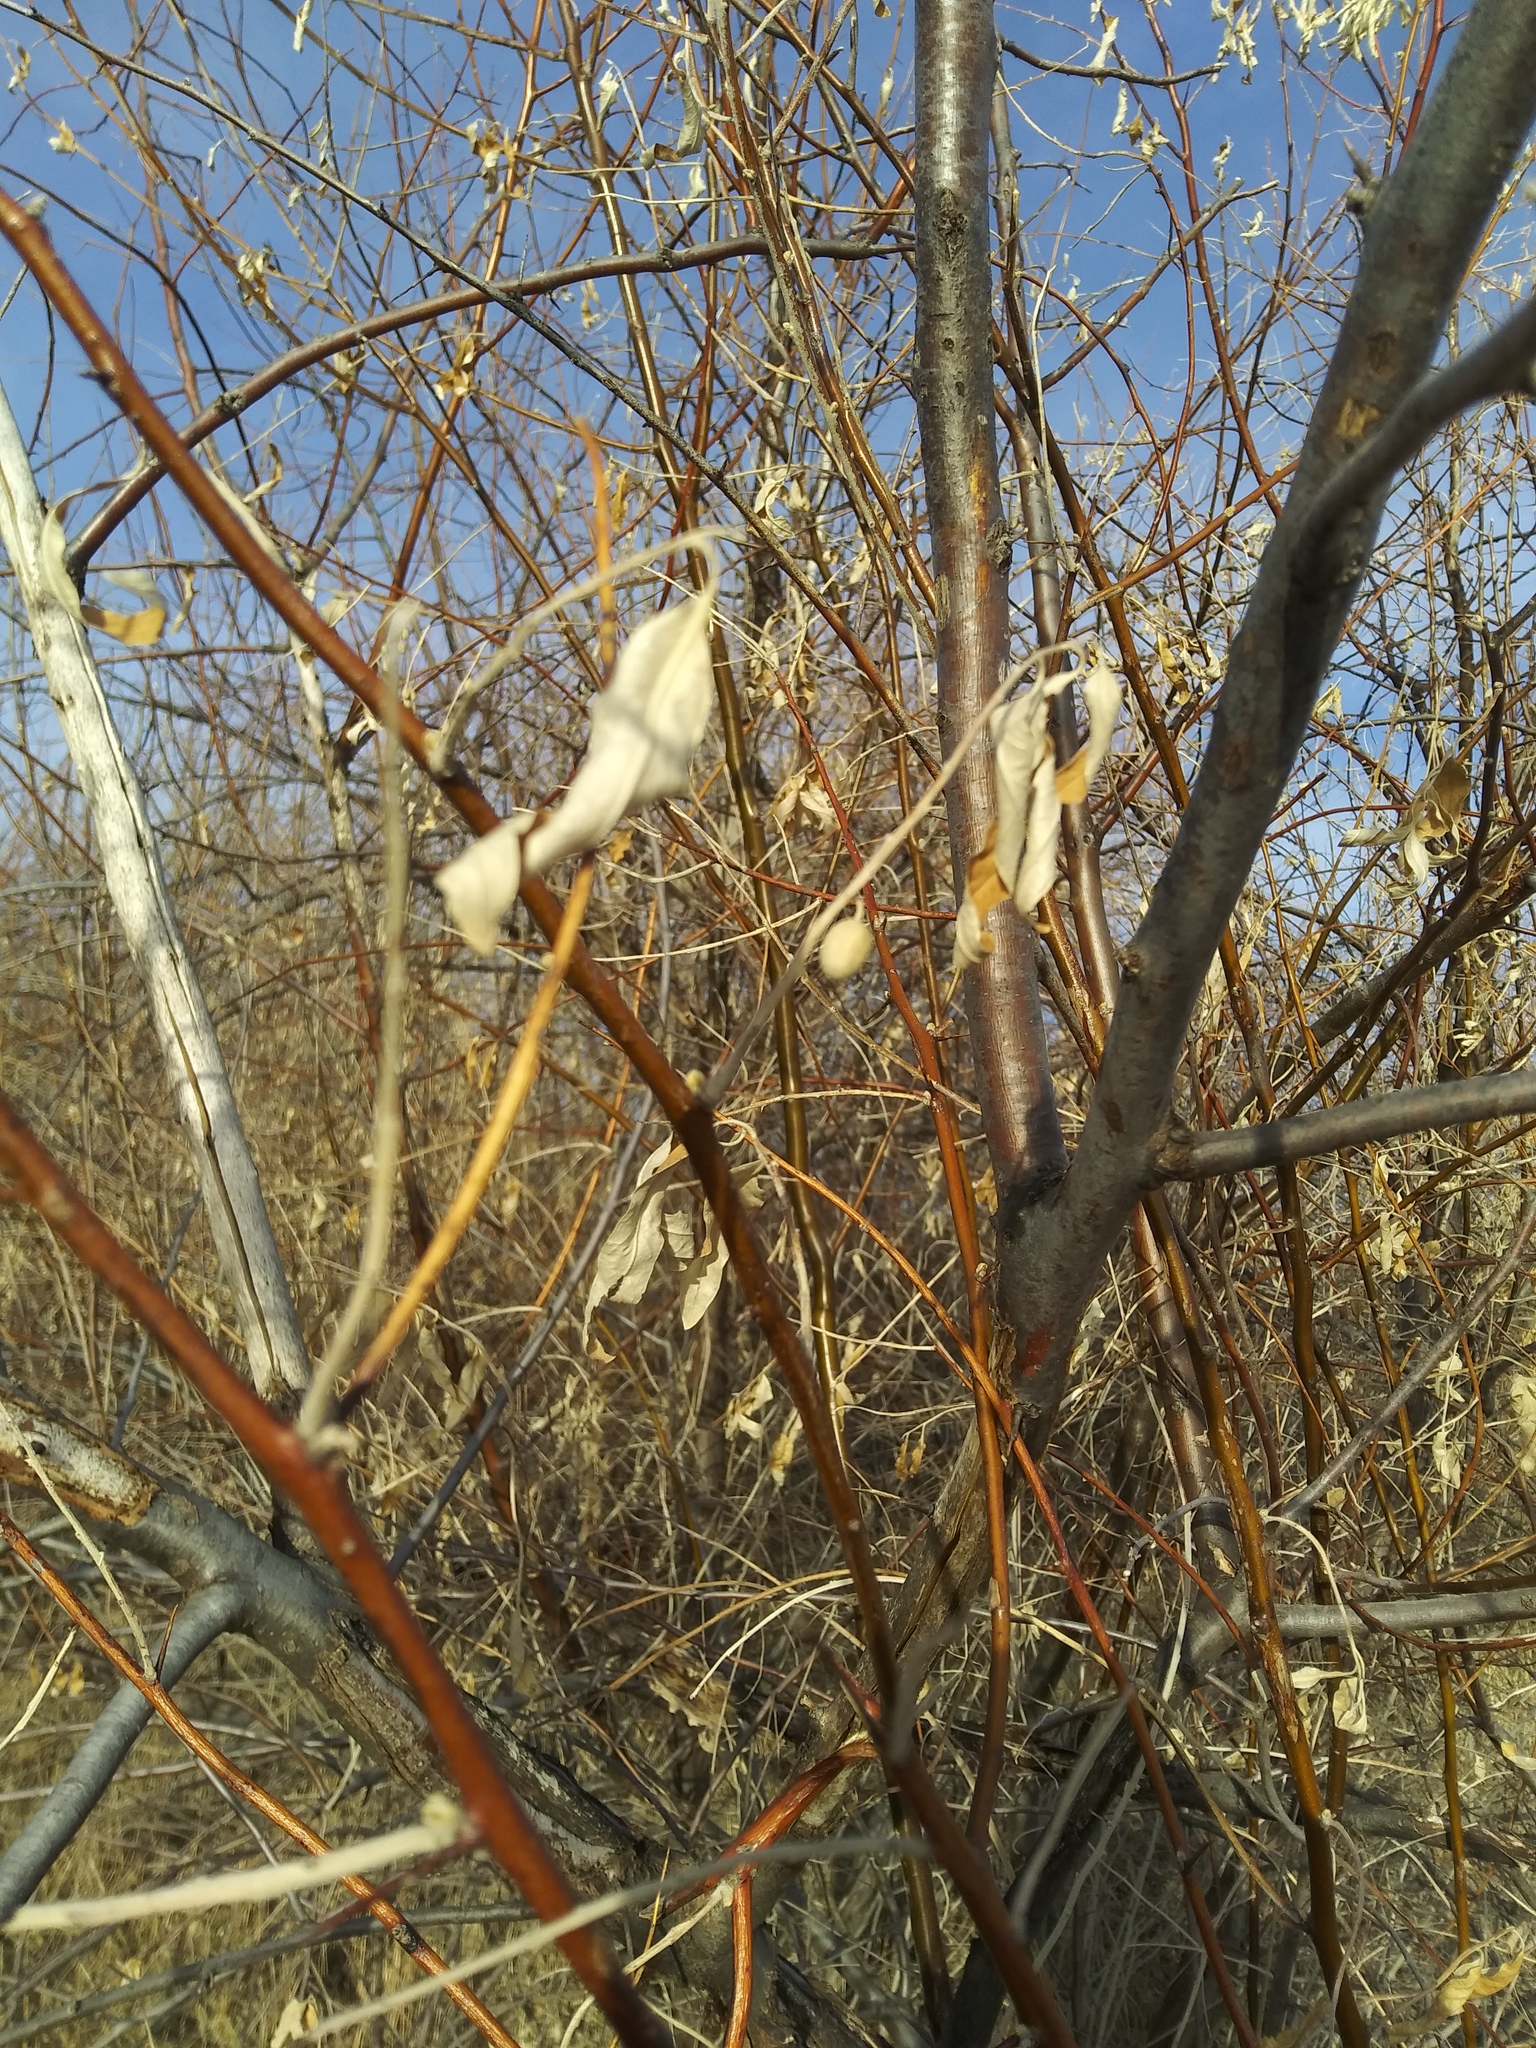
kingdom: Plantae
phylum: Tracheophyta
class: Magnoliopsida
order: Rosales
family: Elaeagnaceae
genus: Elaeagnus
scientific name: Elaeagnus angustifolia
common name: Russian olive
